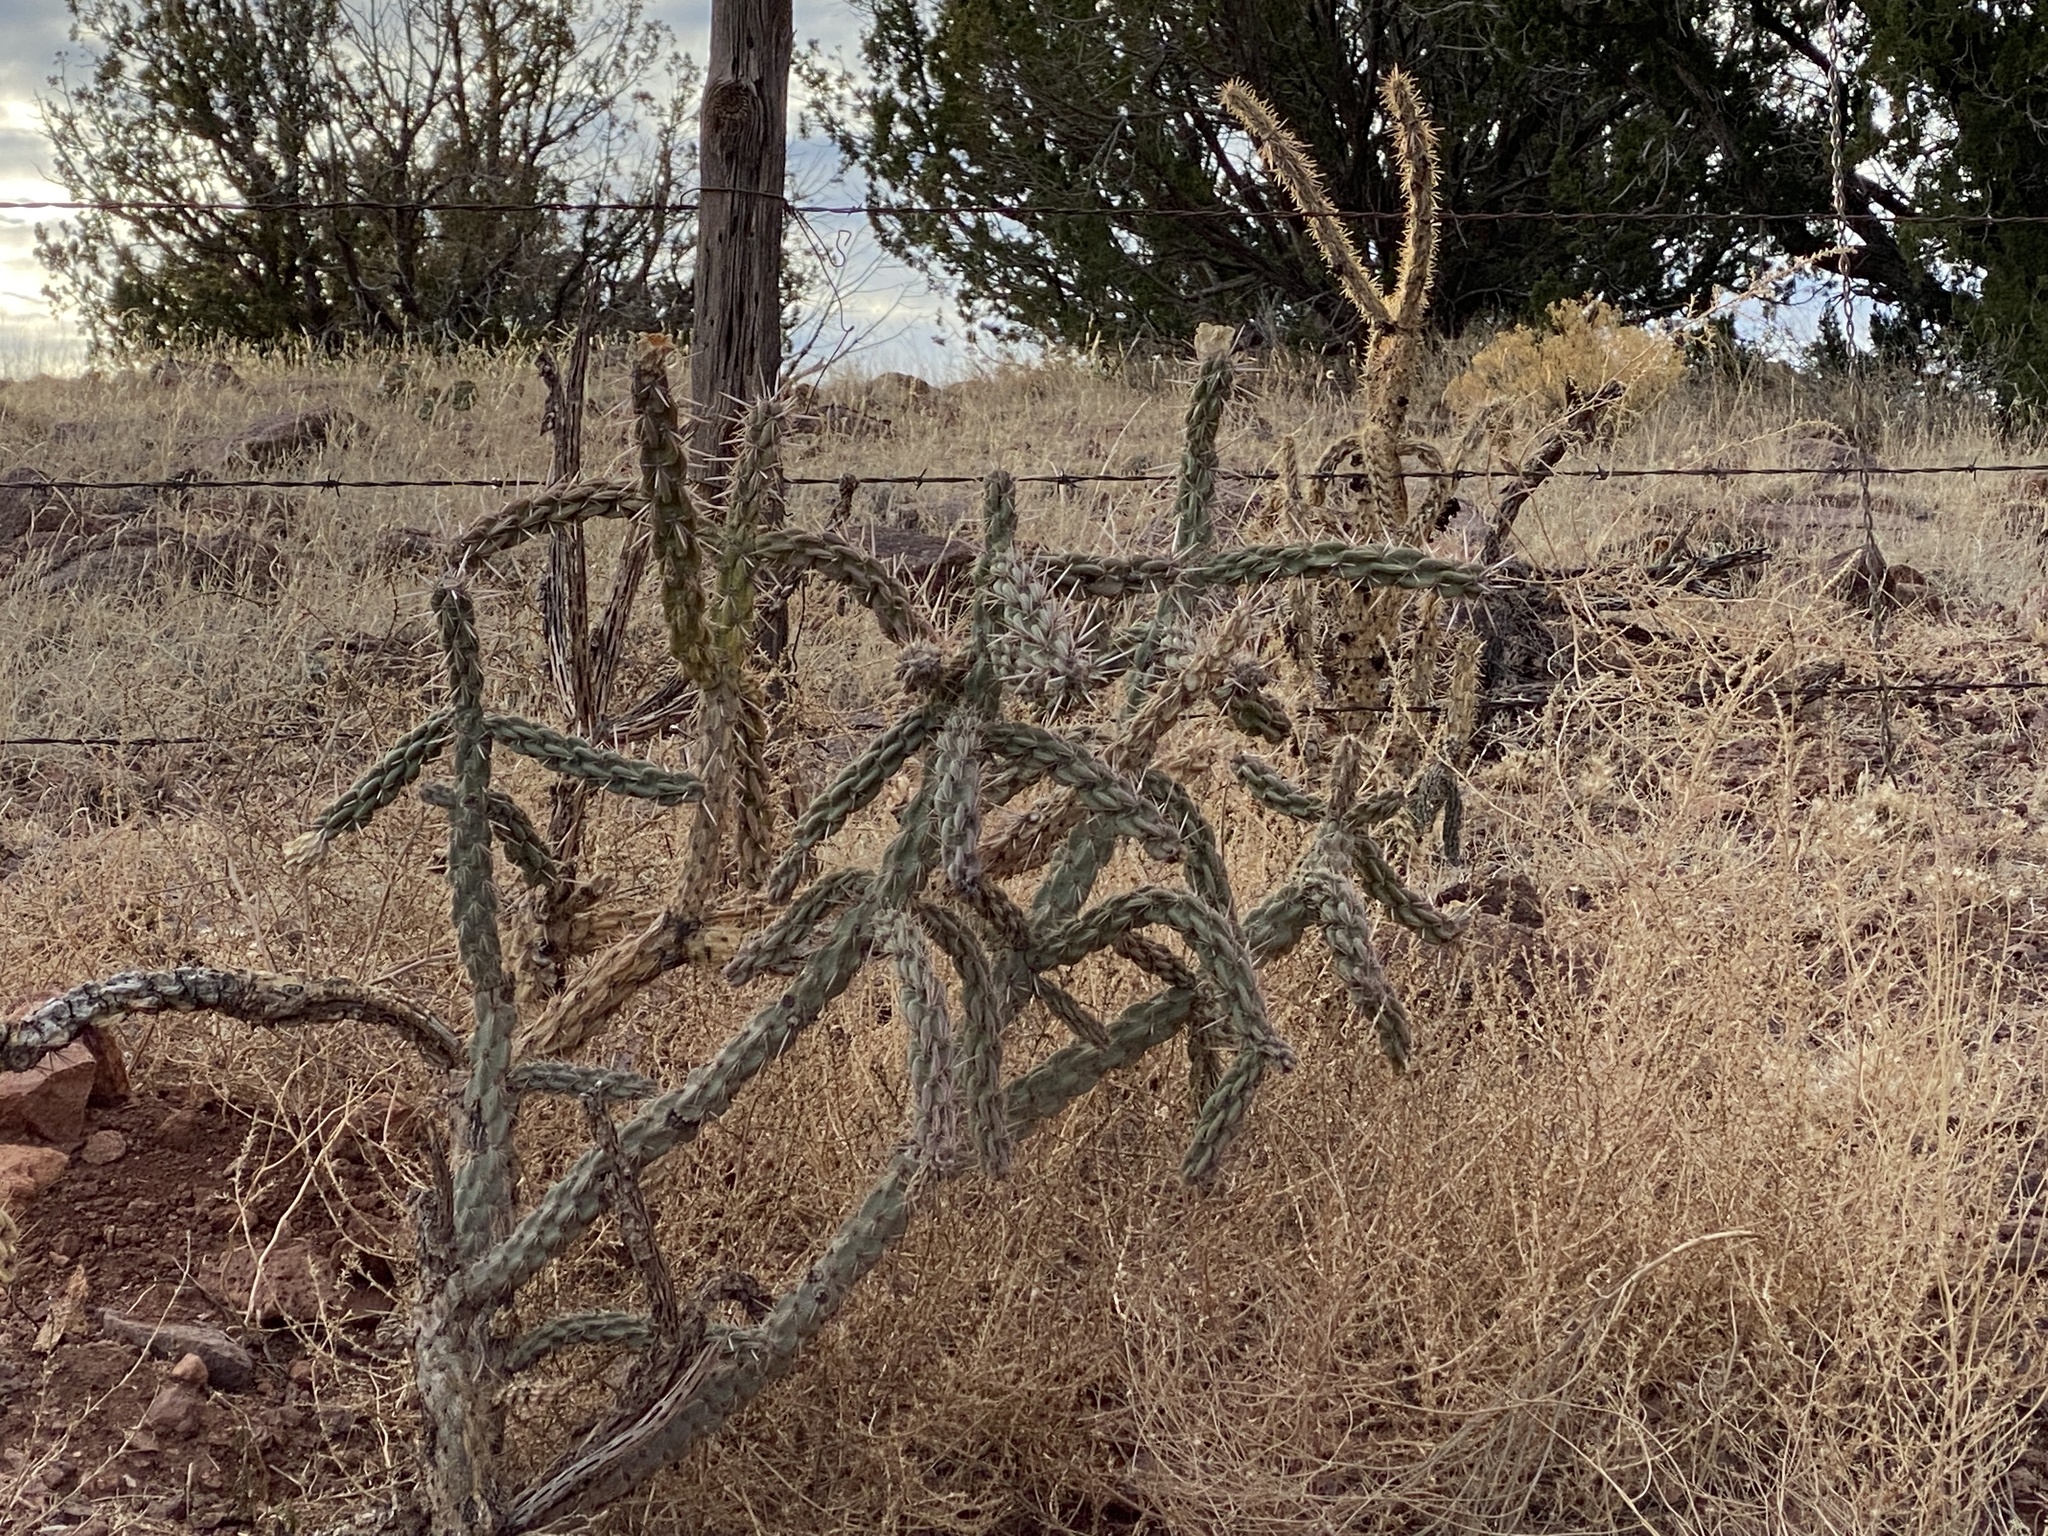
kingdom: Plantae
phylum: Tracheophyta
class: Magnoliopsida
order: Caryophyllales
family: Cactaceae
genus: Cylindropuntia
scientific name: Cylindropuntia imbricata
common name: Candelabrum cactus
